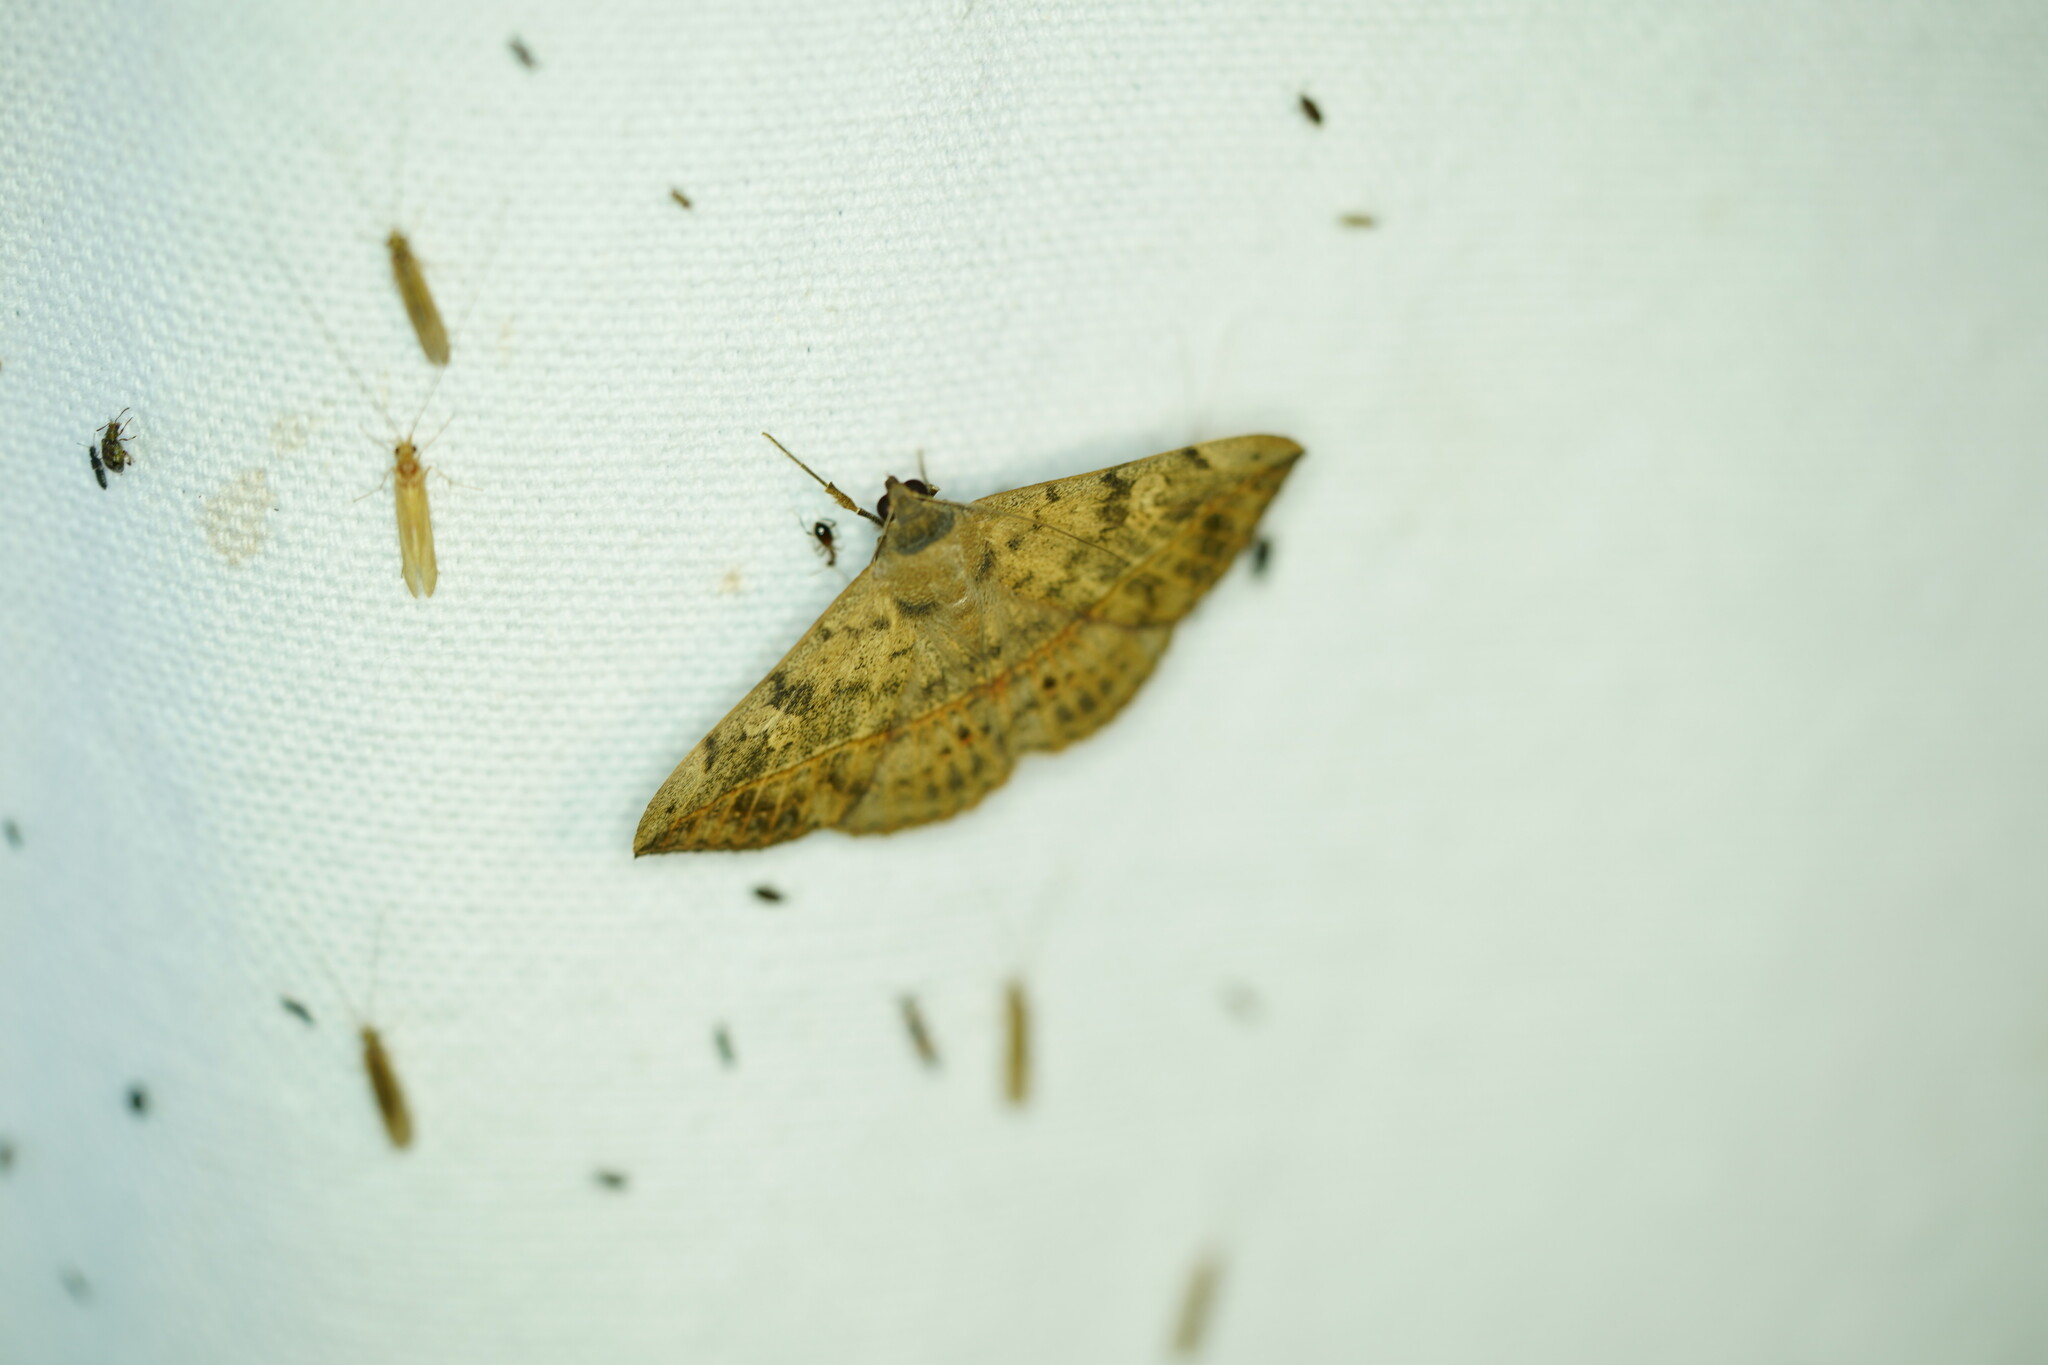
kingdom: Animalia
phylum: Arthropoda
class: Insecta
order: Lepidoptera
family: Erebidae
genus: Anticarsia
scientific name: Anticarsia gemmatalis
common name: Cutworm moth
